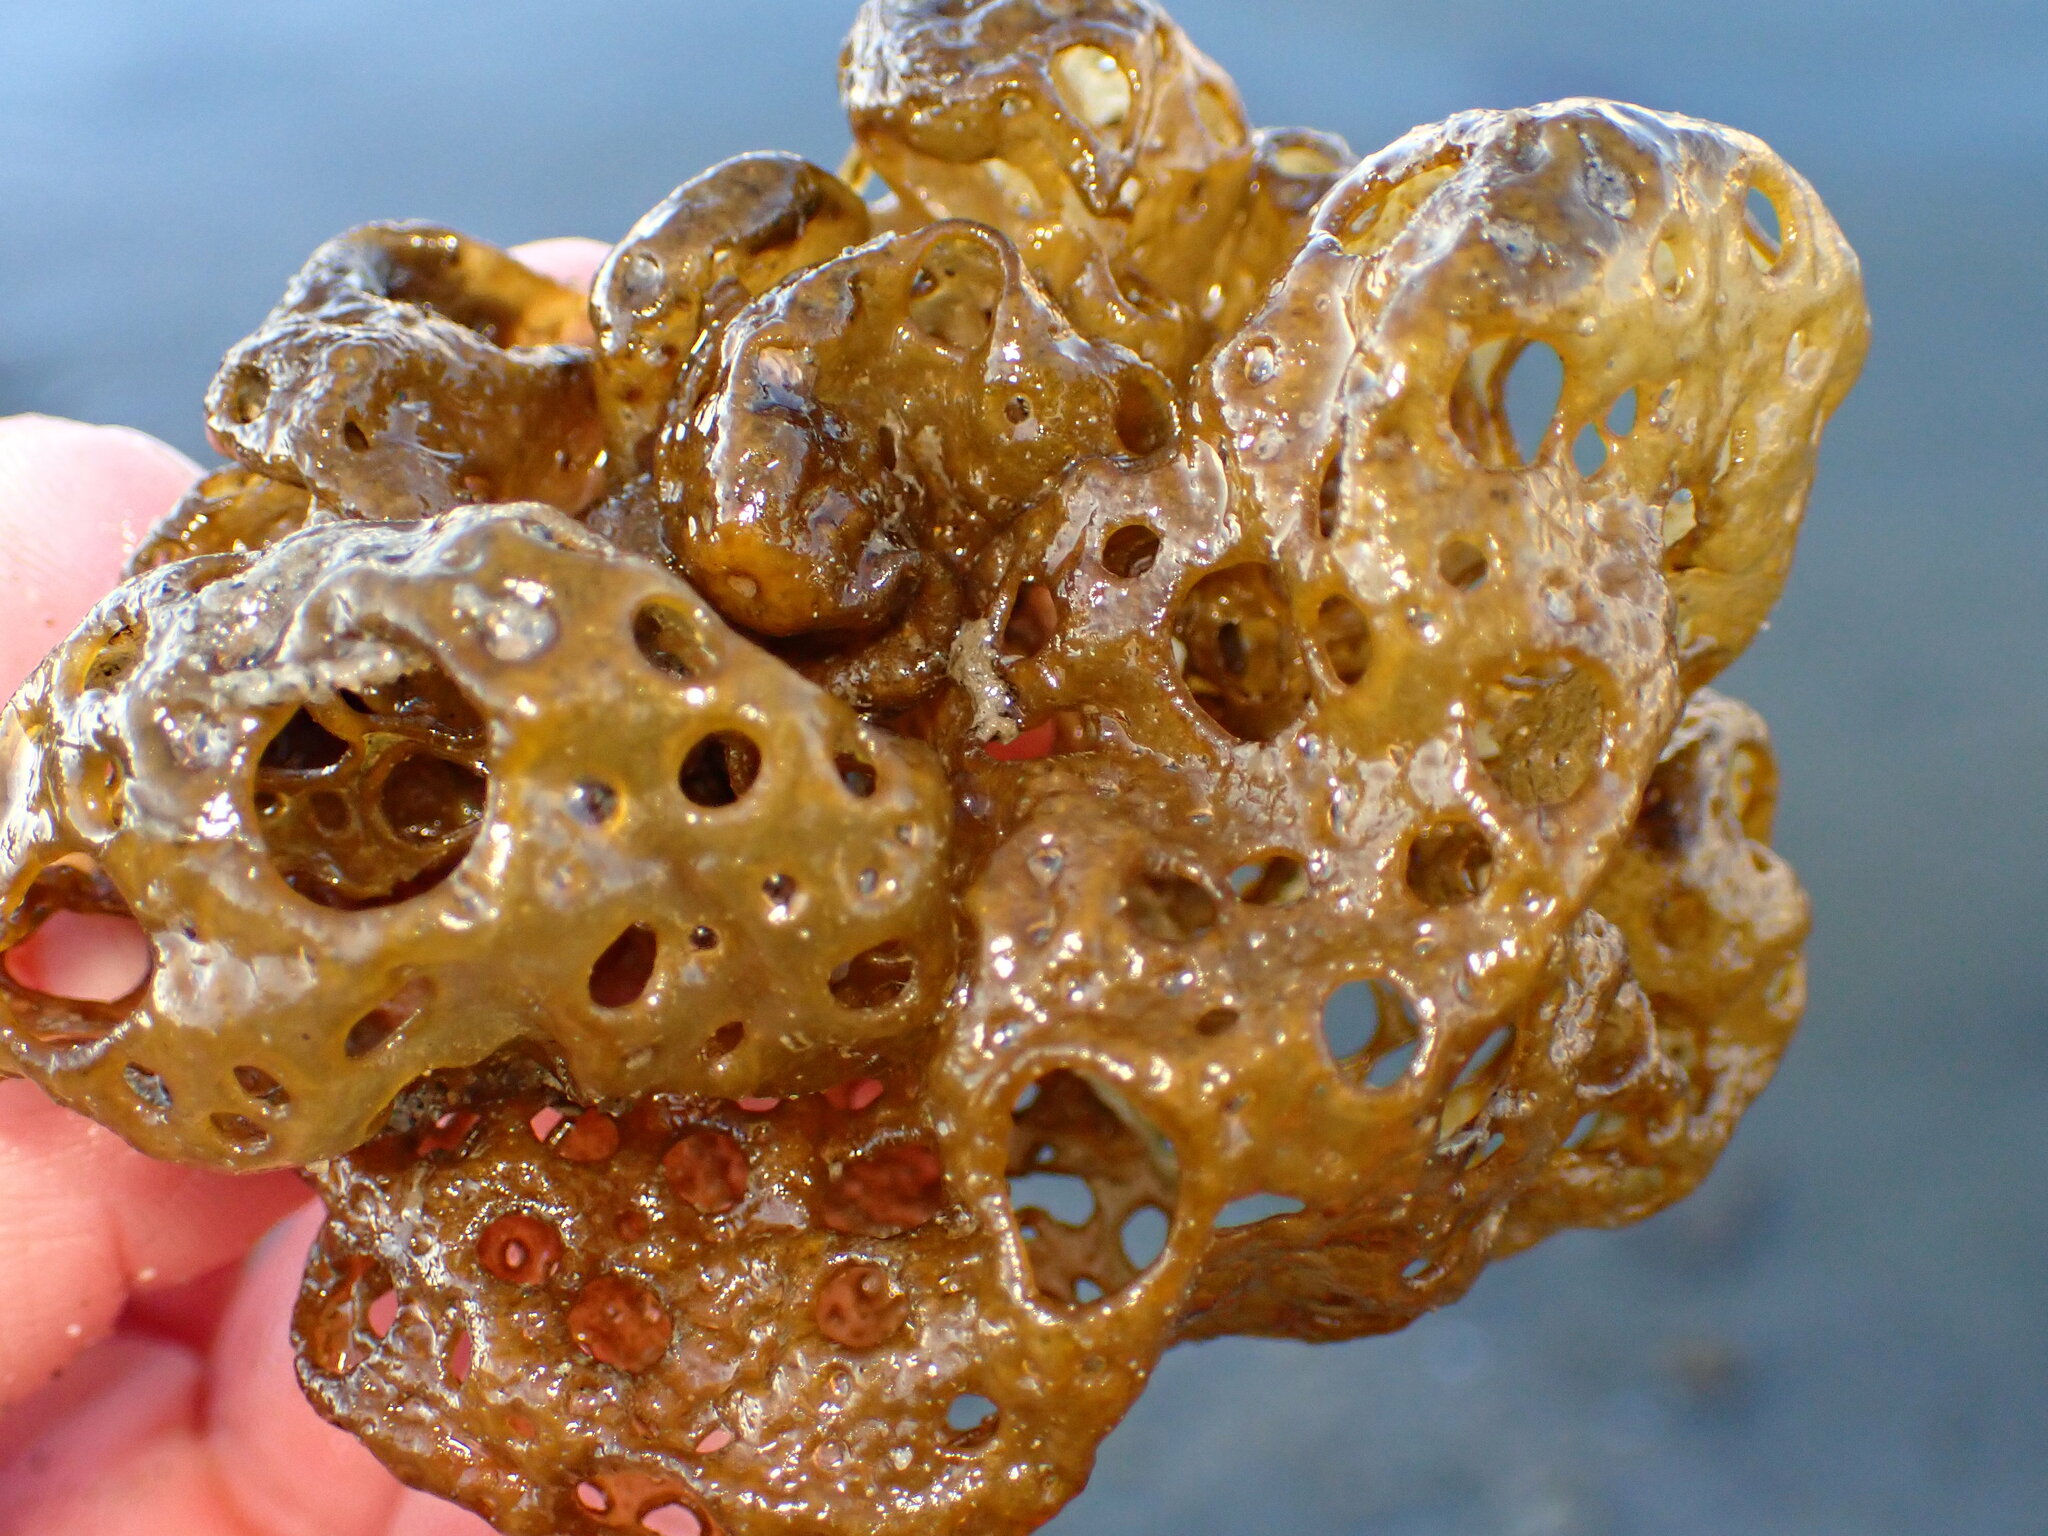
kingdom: Chromista
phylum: Ochrophyta
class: Phaeophyceae
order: Scytosiphonales
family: Scytosiphonaceae
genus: Hydroclathrus
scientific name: Hydroclathrus clathratus
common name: Swiss cheese algae
